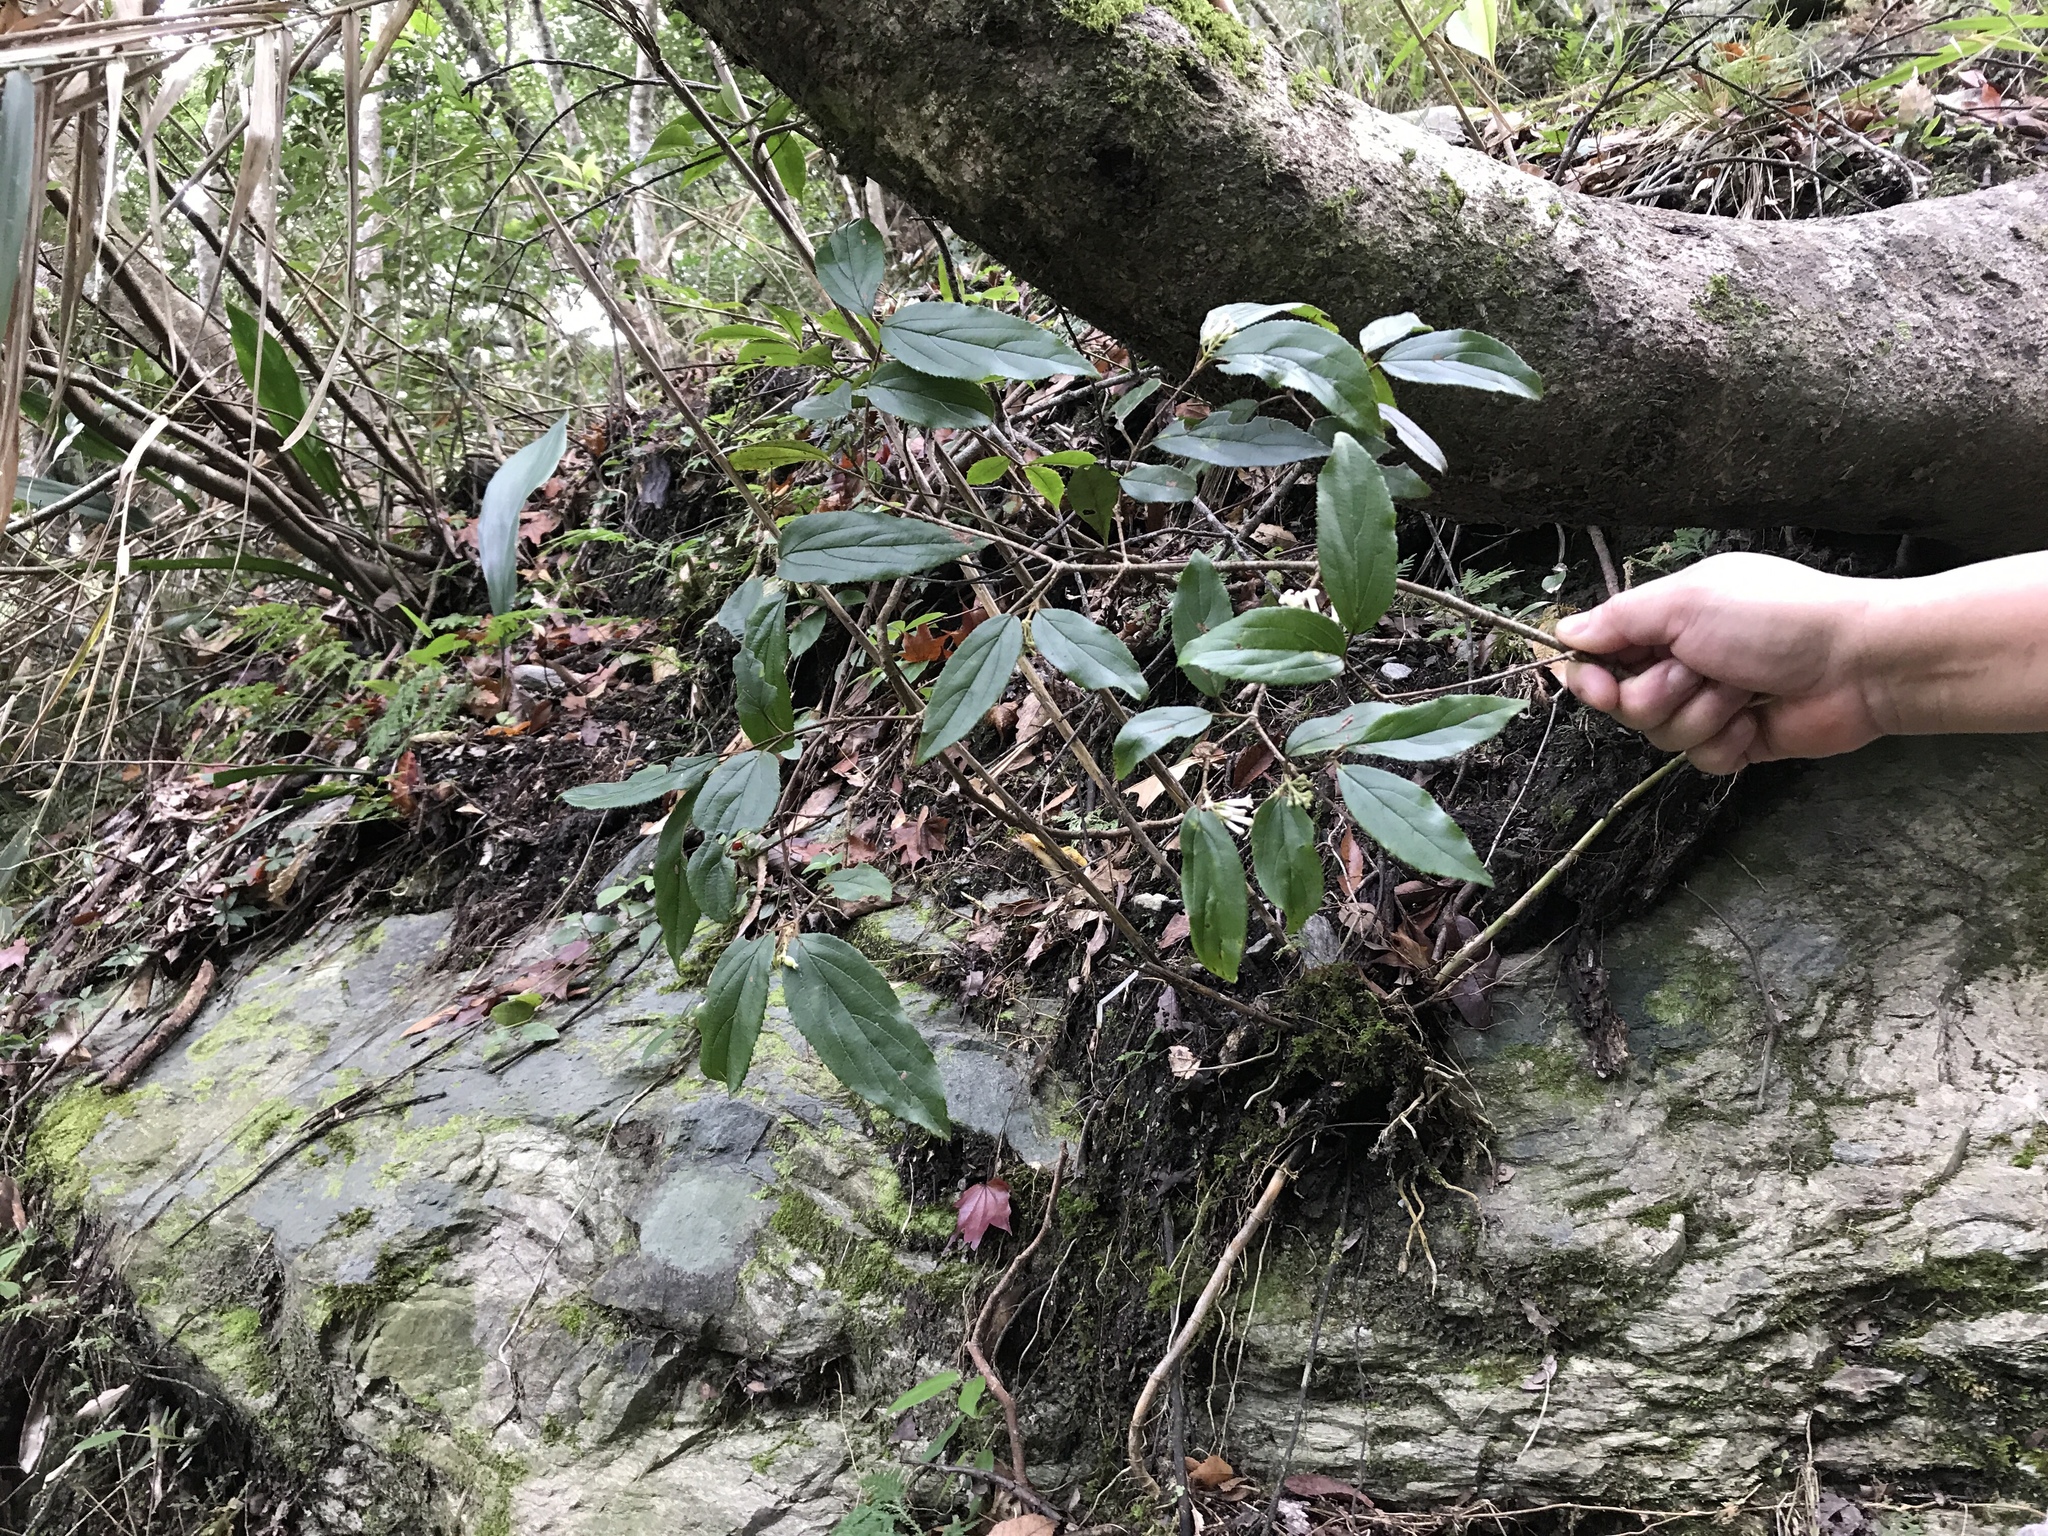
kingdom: Plantae
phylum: Tracheophyta
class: Magnoliopsida
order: Dipsacales
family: Viburnaceae
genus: Viburnum
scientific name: Viburnum taitoense
